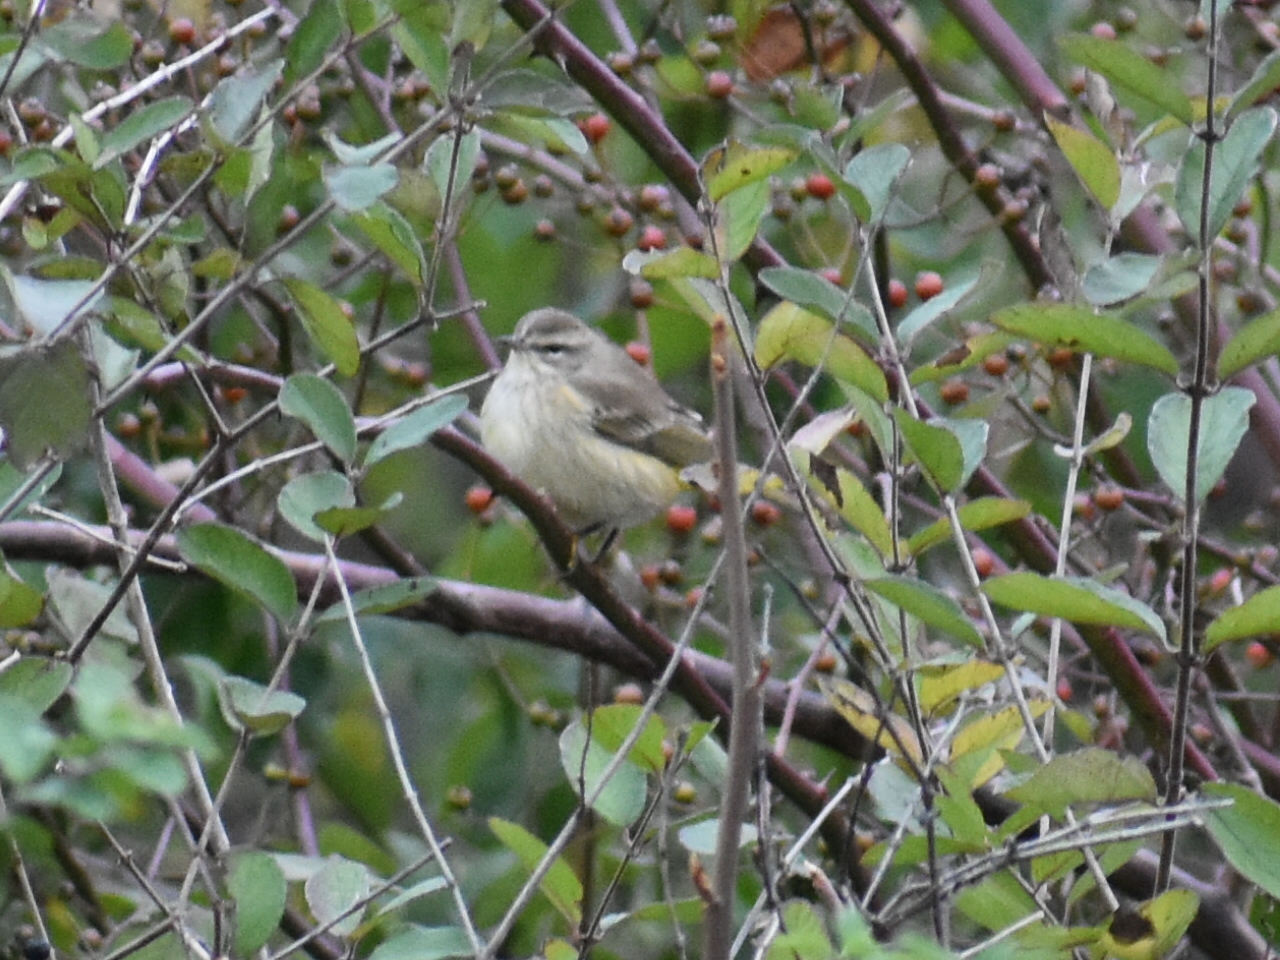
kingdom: Animalia
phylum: Chordata
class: Aves
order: Passeriformes
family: Parulidae
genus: Setophaga
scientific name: Setophaga palmarum
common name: Palm warbler
